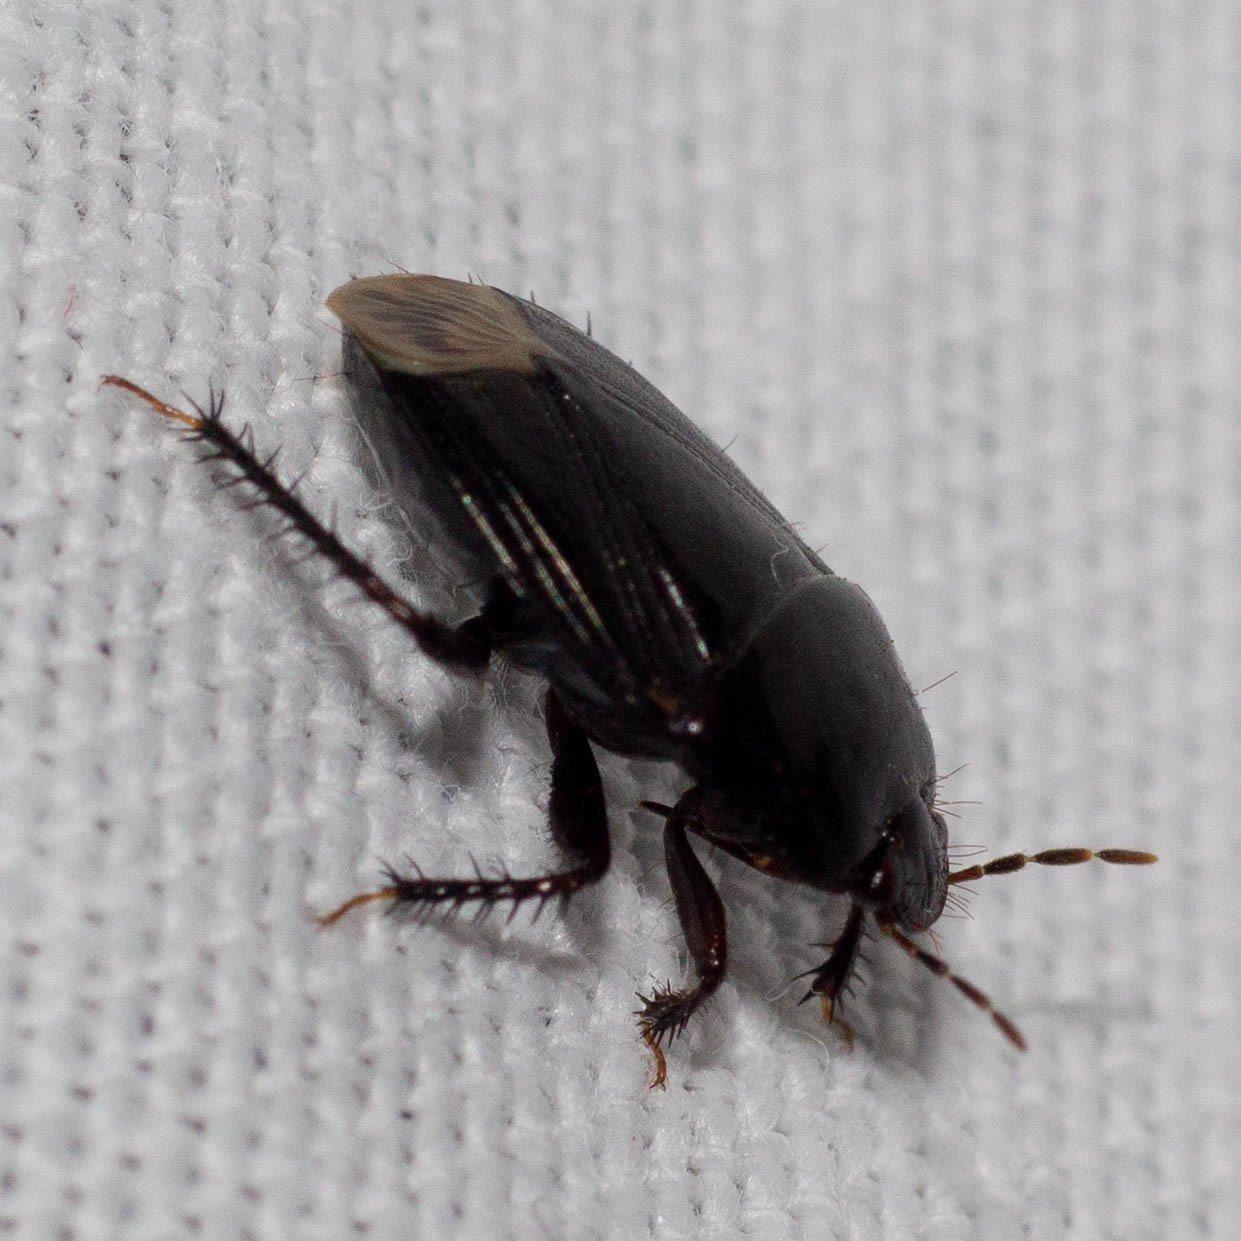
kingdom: Animalia
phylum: Arthropoda
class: Insecta
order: Hemiptera
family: Cydnidae
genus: Macroscytus
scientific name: Macroscytus brunneus
